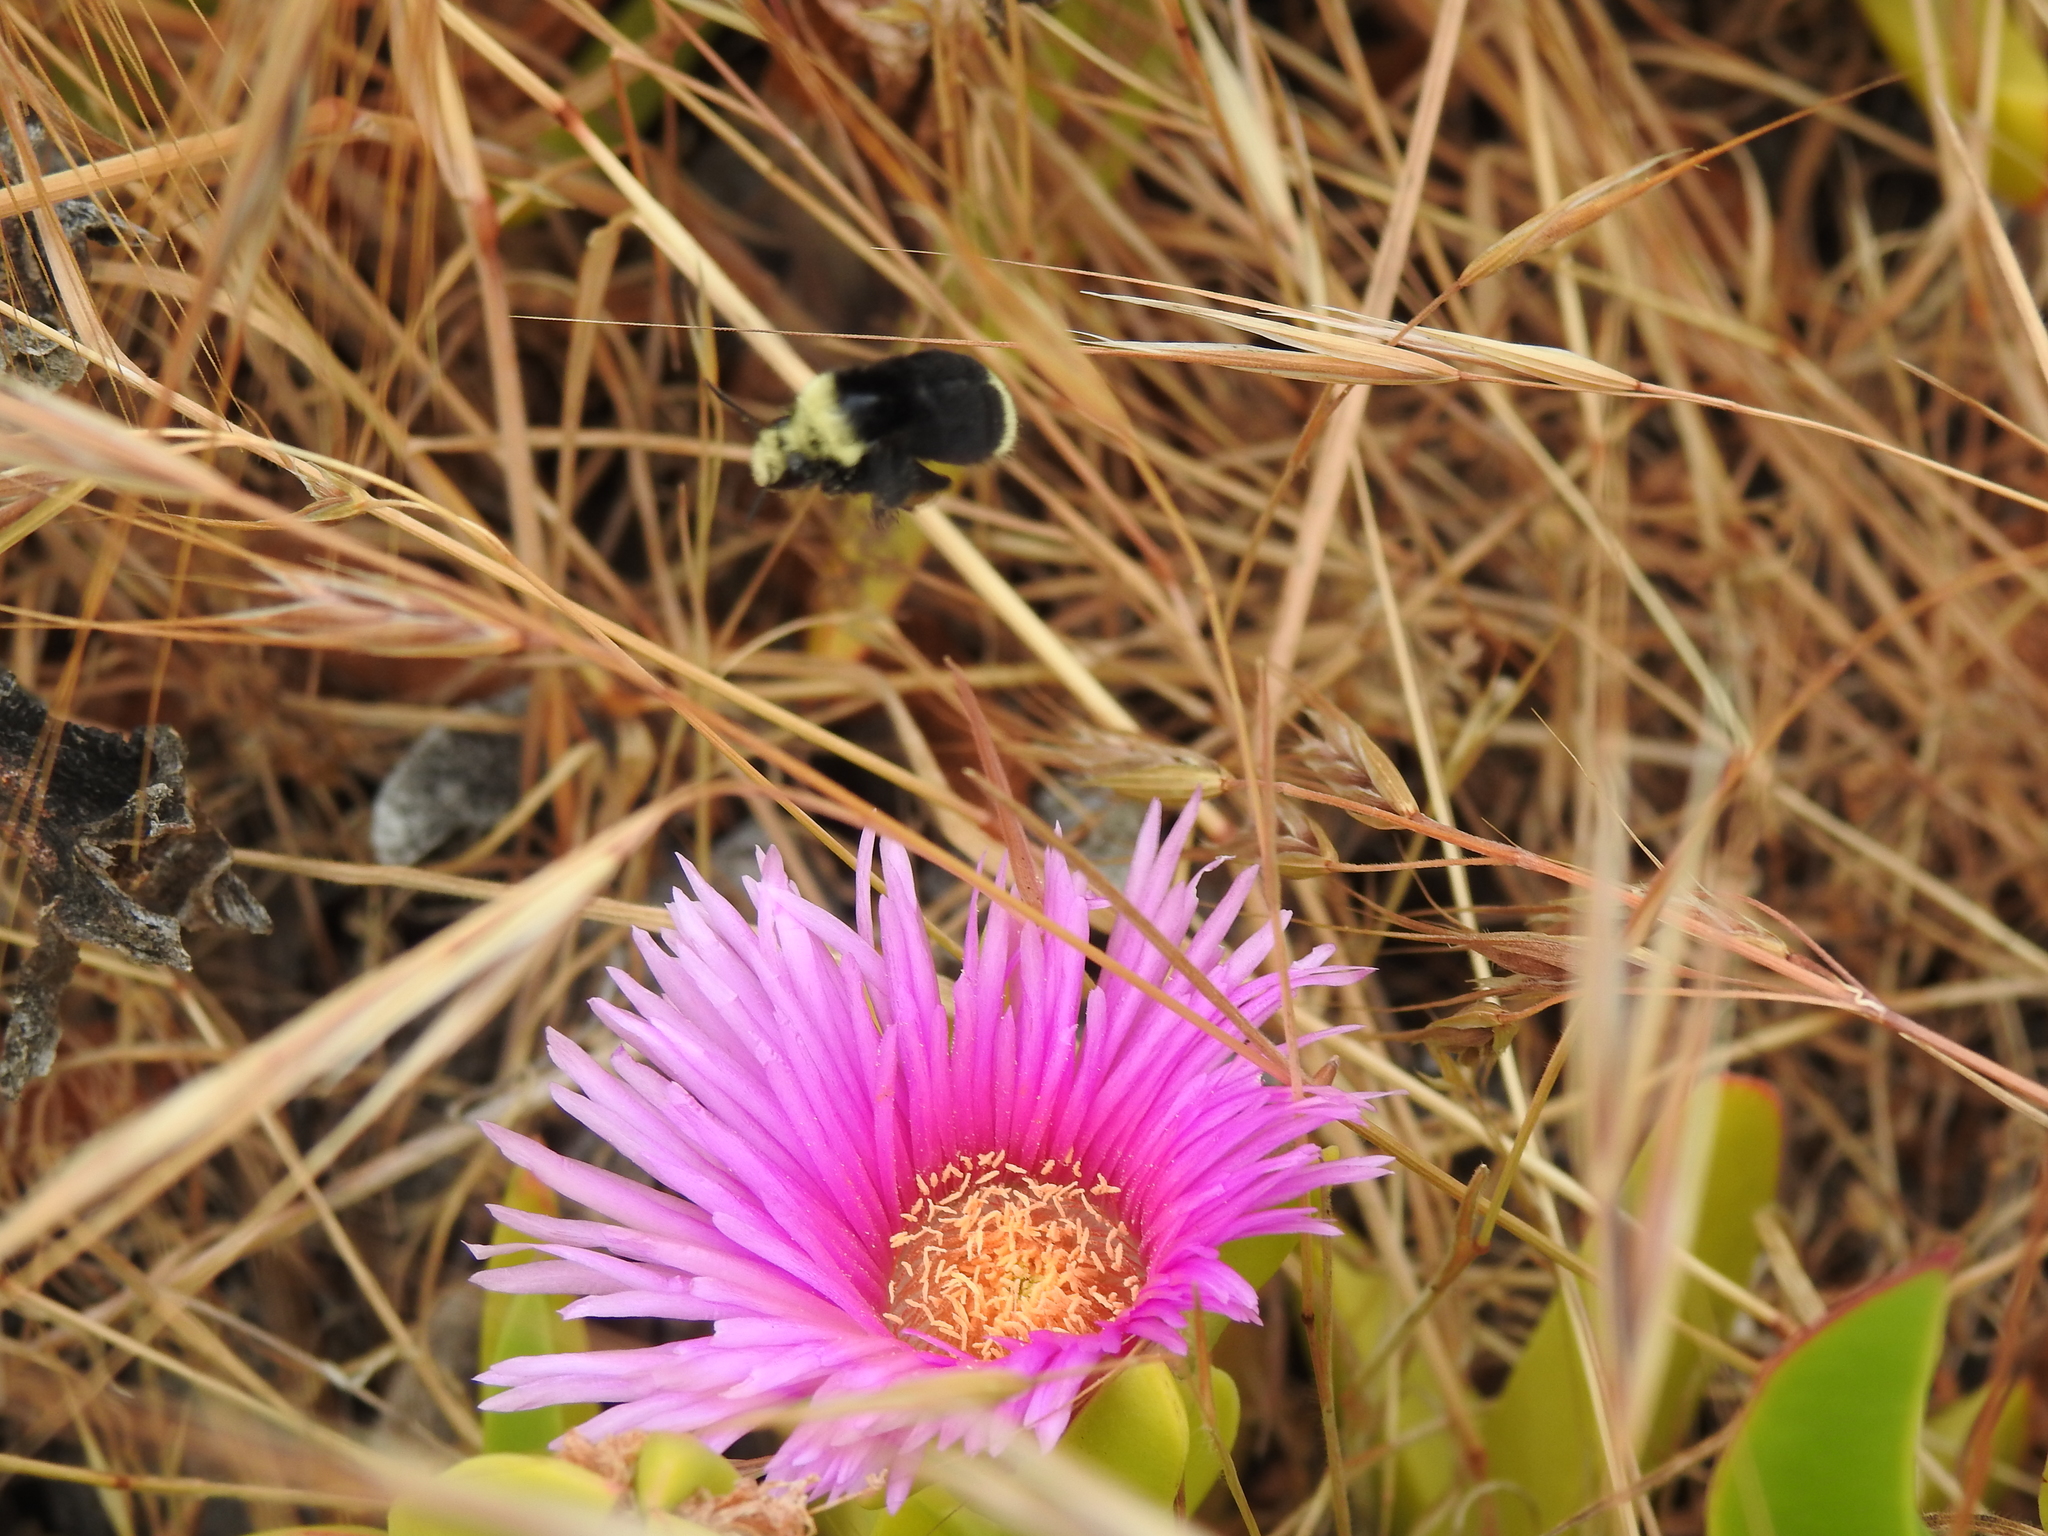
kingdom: Animalia
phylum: Arthropoda
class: Insecta
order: Hymenoptera
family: Apidae
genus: Bombus
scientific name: Bombus vosnesenskii
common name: Vosnesensky bumble bee
